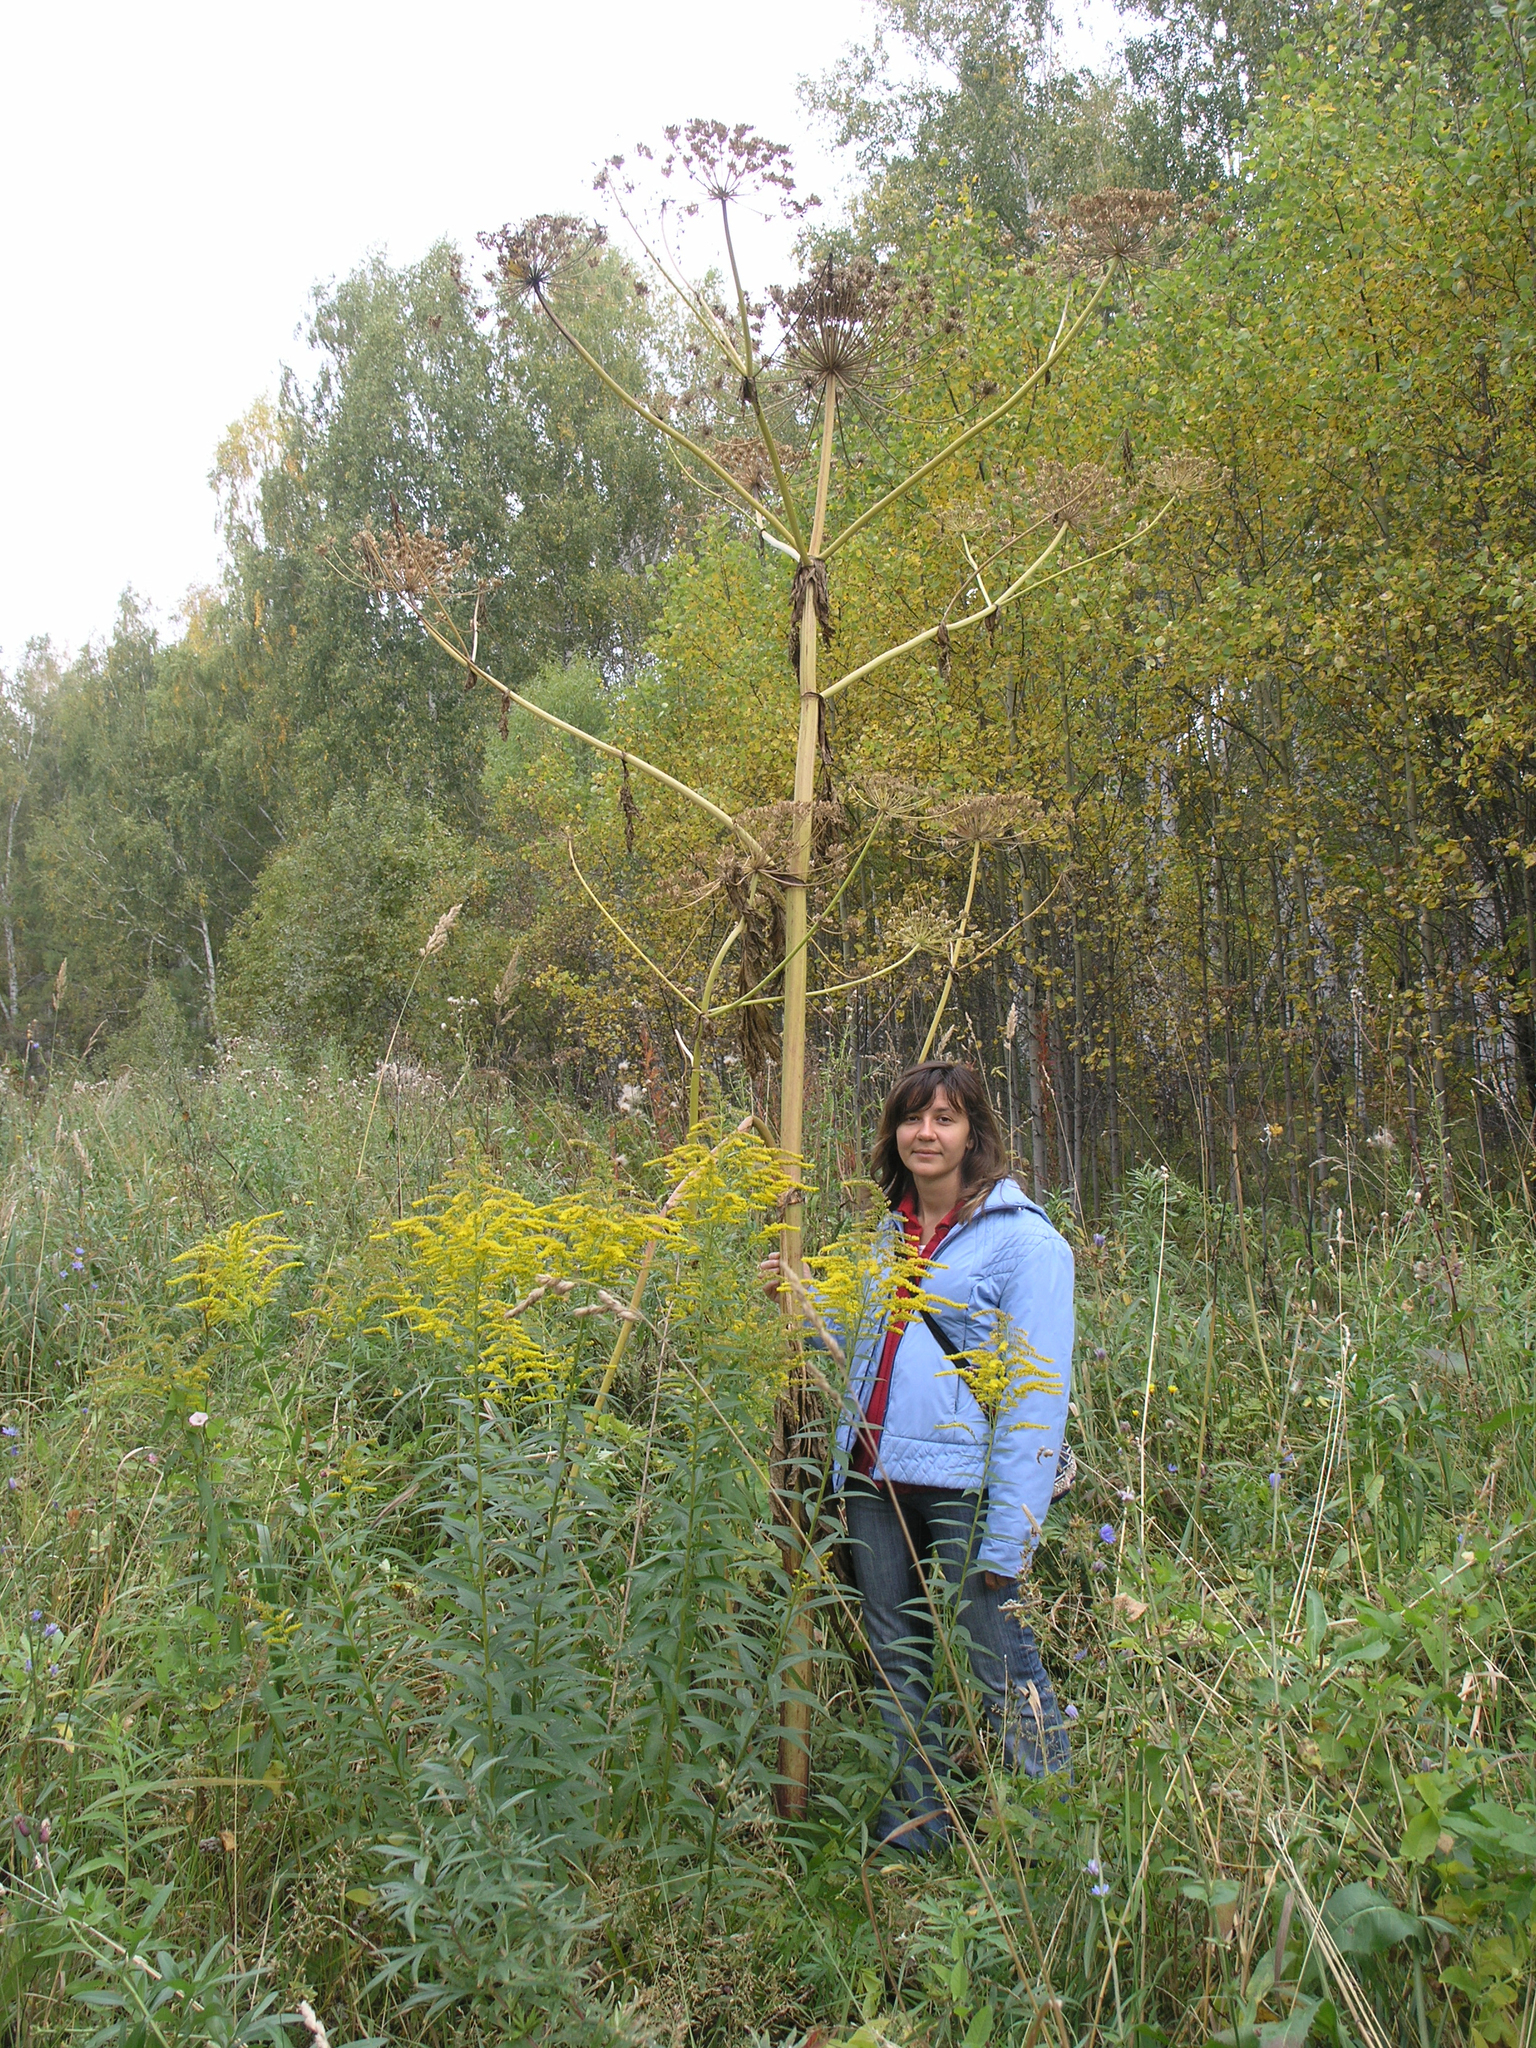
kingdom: Plantae
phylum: Tracheophyta
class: Magnoliopsida
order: Apiales
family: Apiaceae
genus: Heracleum
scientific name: Heracleum sosnowskyi
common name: Sosnowsky's hogweed
